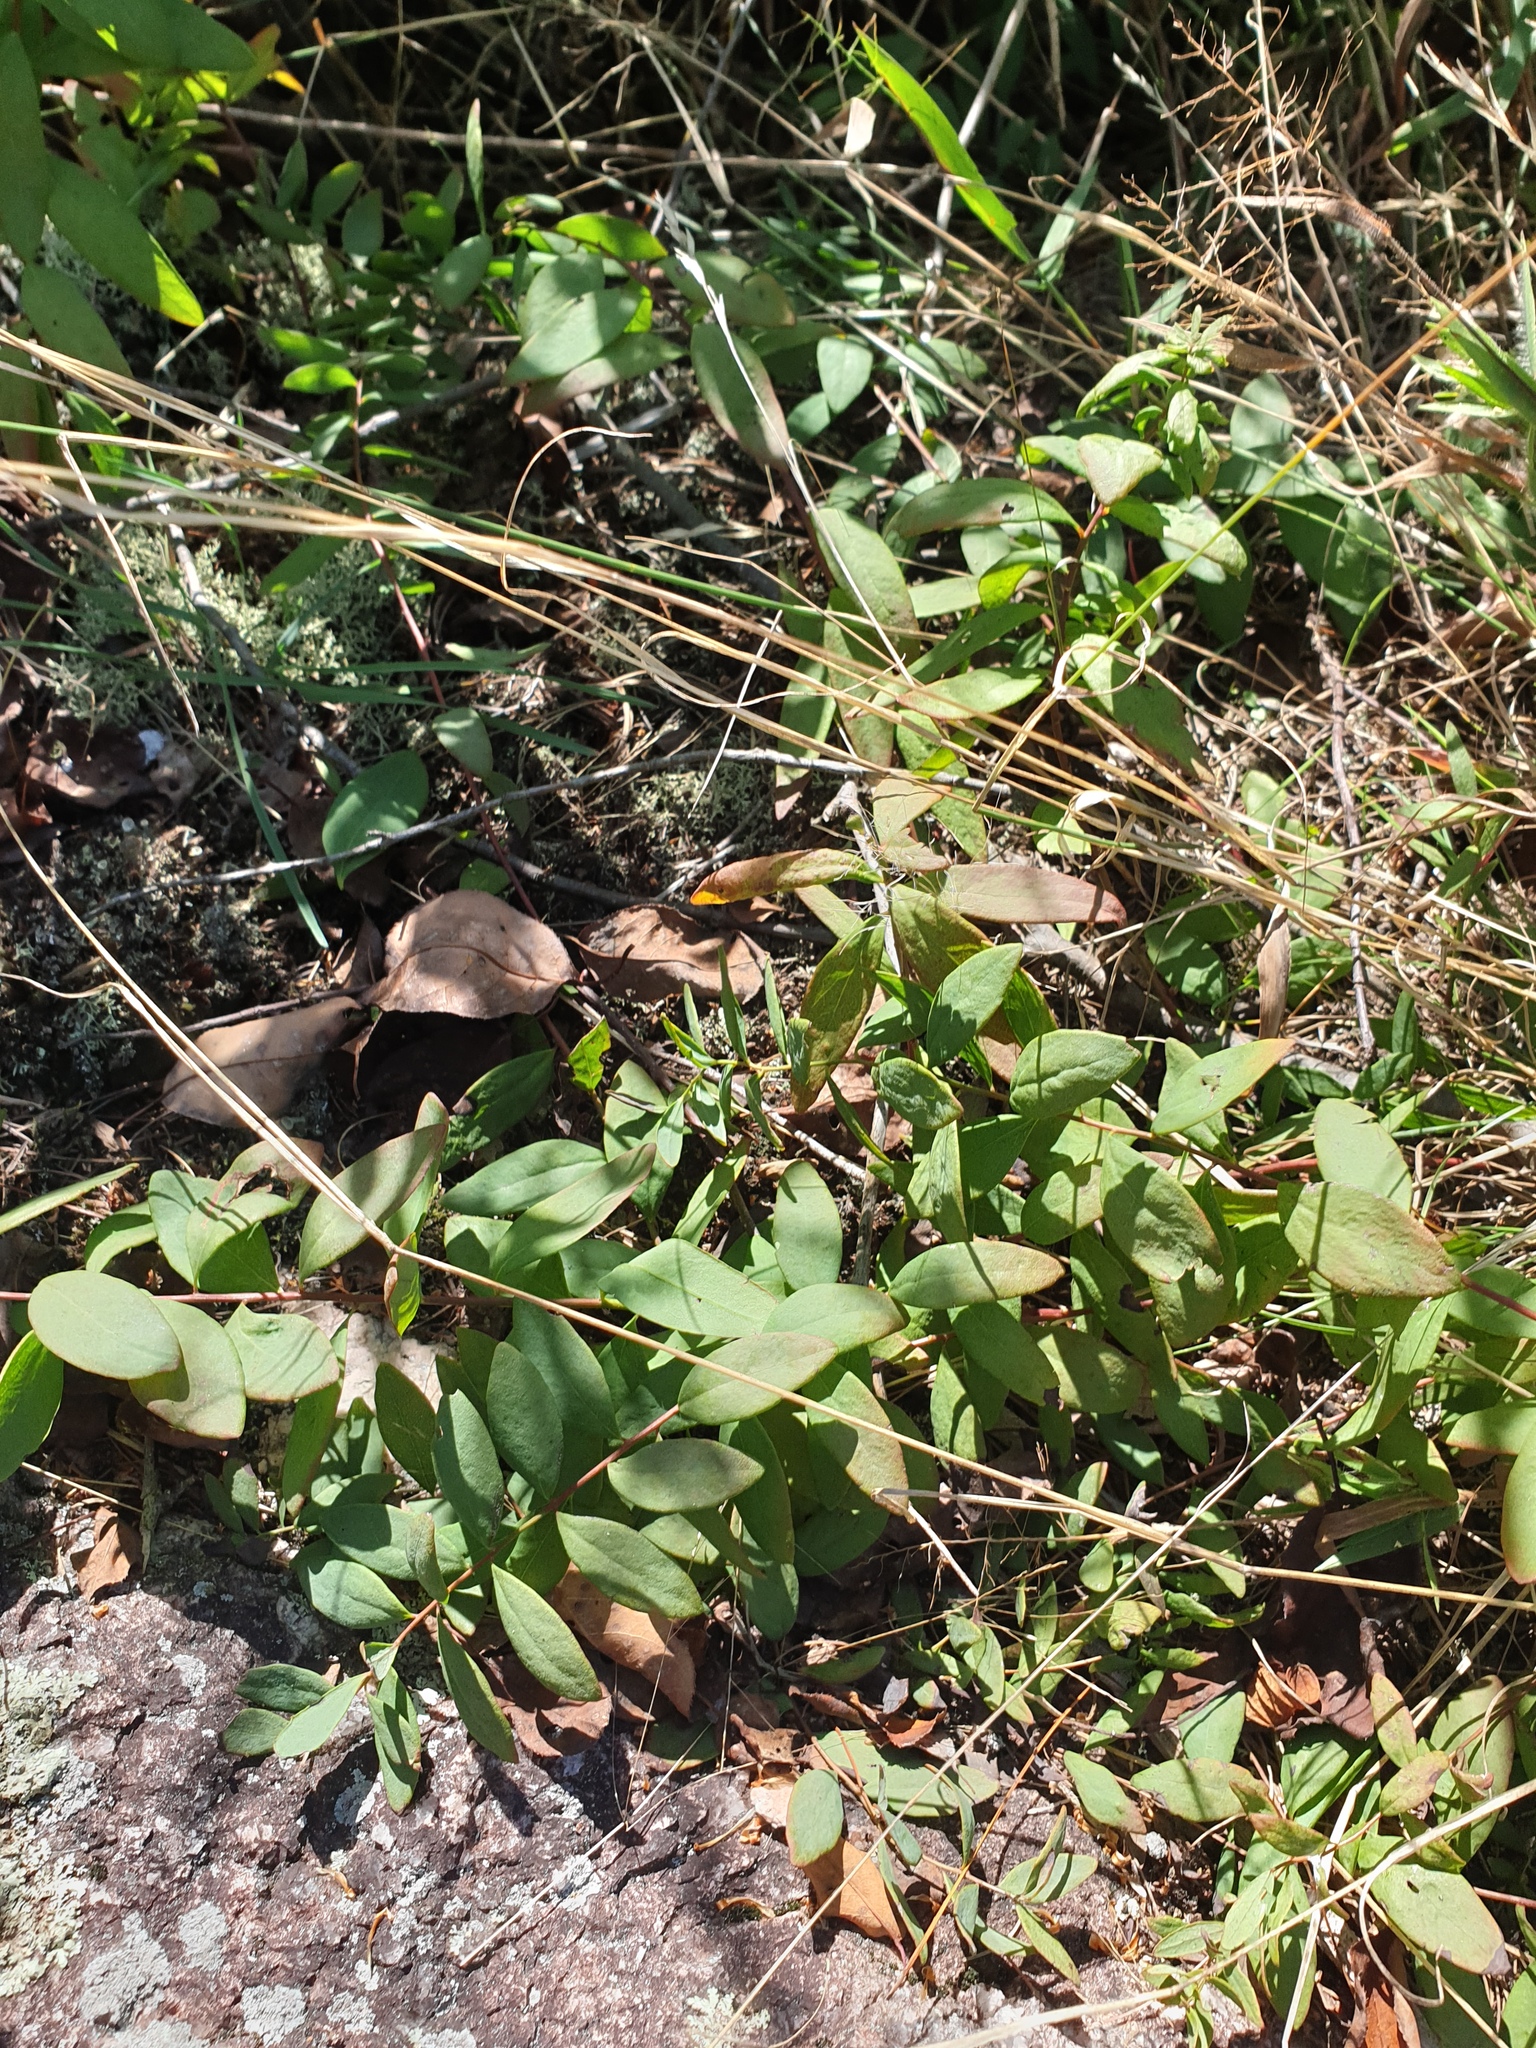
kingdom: Plantae
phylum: Tracheophyta
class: Magnoliopsida
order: Santalales
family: Comandraceae
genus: Comandra
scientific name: Comandra umbellata
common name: Bastard toadflax
